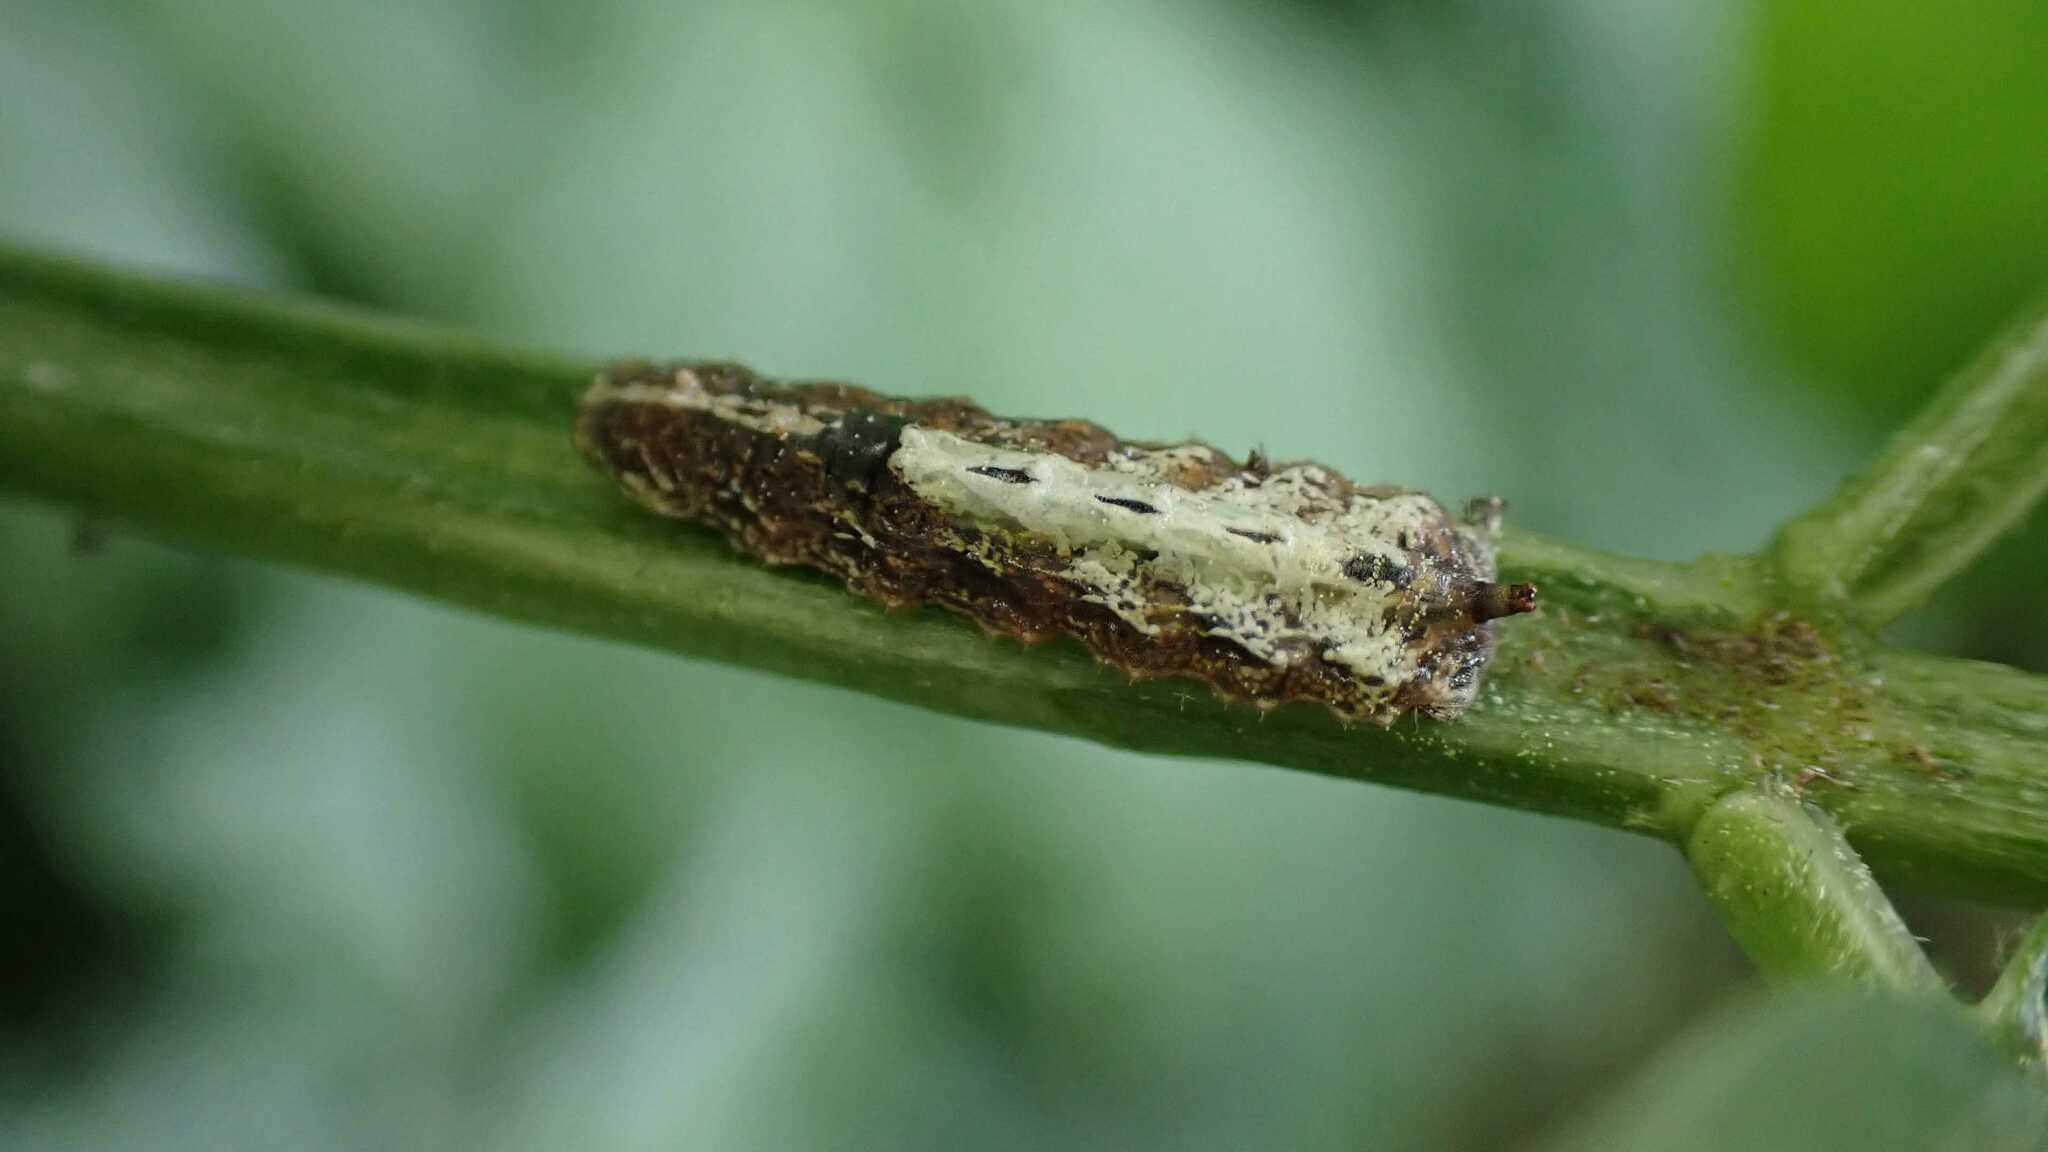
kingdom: Animalia
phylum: Arthropoda
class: Insecta
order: Diptera
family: Syrphidae
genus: Meligramma
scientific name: Meligramma triangulifera
